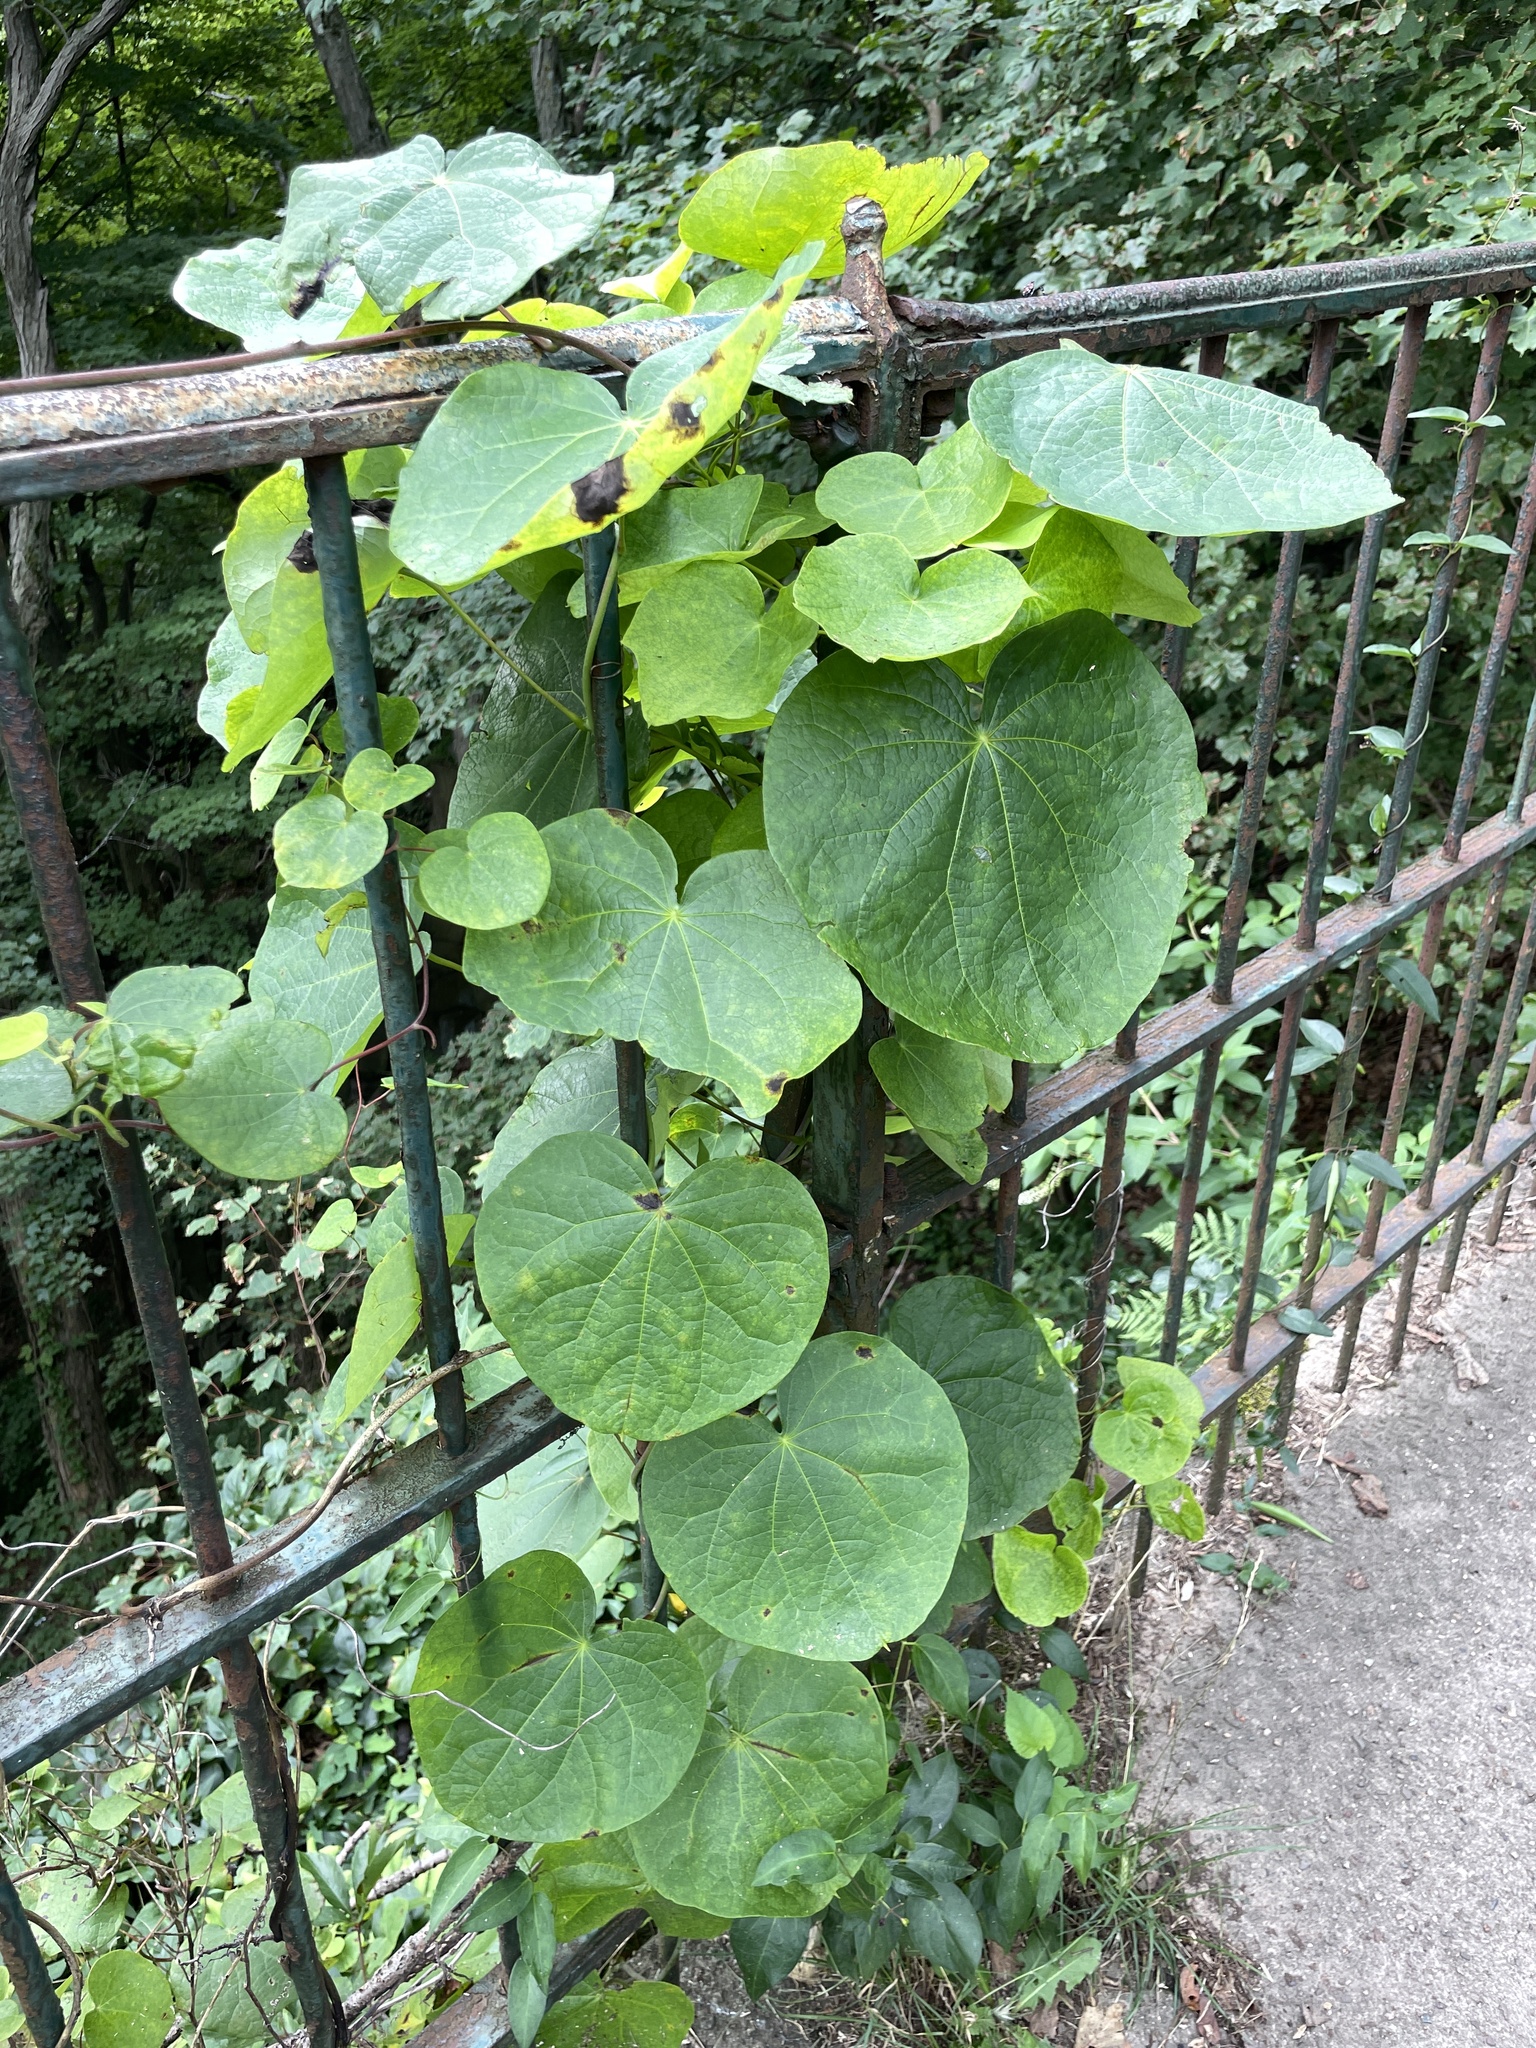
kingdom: Plantae
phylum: Tracheophyta
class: Magnoliopsida
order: Ranunculales
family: Menispermaceae
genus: Menispermum
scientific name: Menispermum canadense
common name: Moonseed
